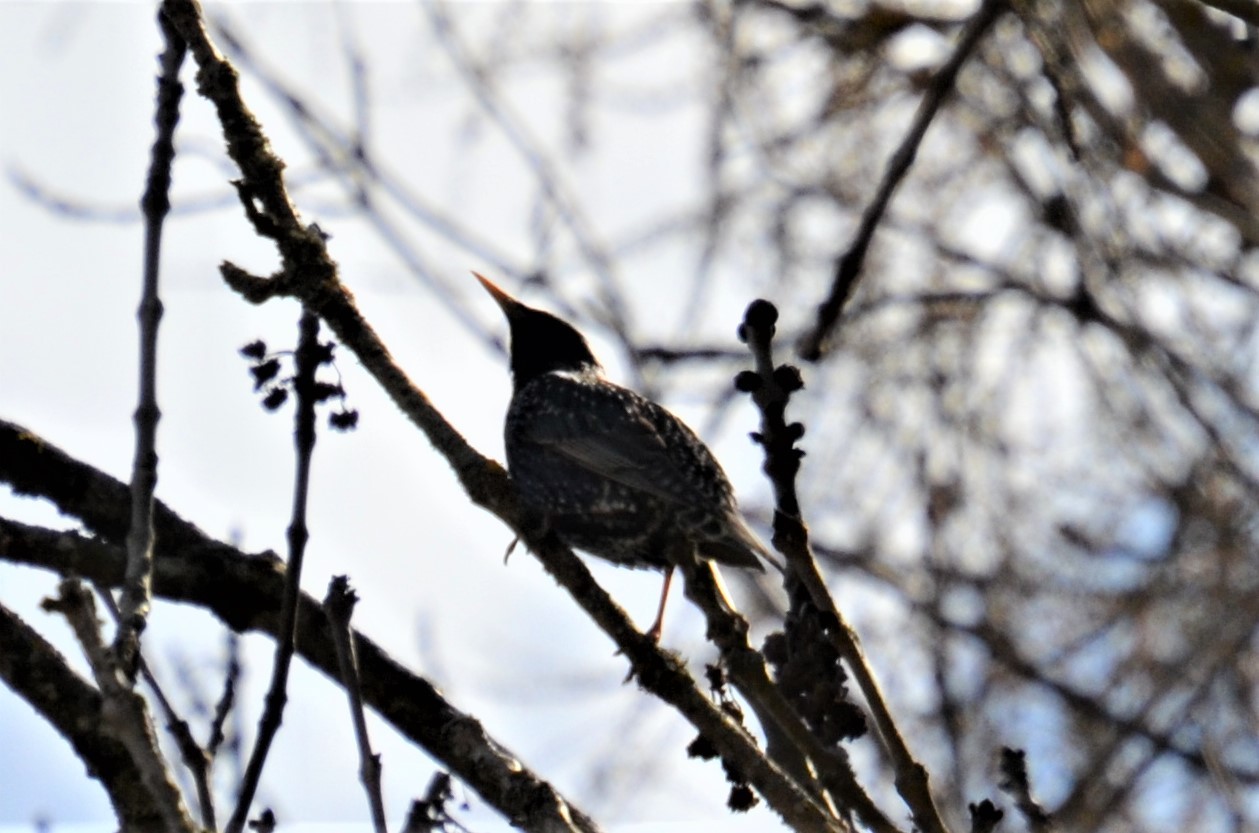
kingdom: Animalia
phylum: Chordata
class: Aves
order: Passeriformes
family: Sturnidae
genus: Sturnus
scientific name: Sturnus vulgaris
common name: Common starling
